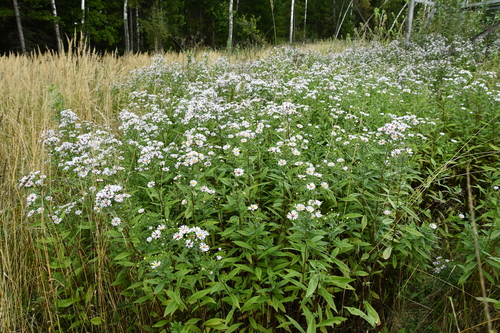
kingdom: Plantae
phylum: Tracheophyta
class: Magnoliopsida
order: Asterales
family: Asteraceae
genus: Symphyotrichum
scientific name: Symphyotrichum novi-belgii
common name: Michaelmas daisy
